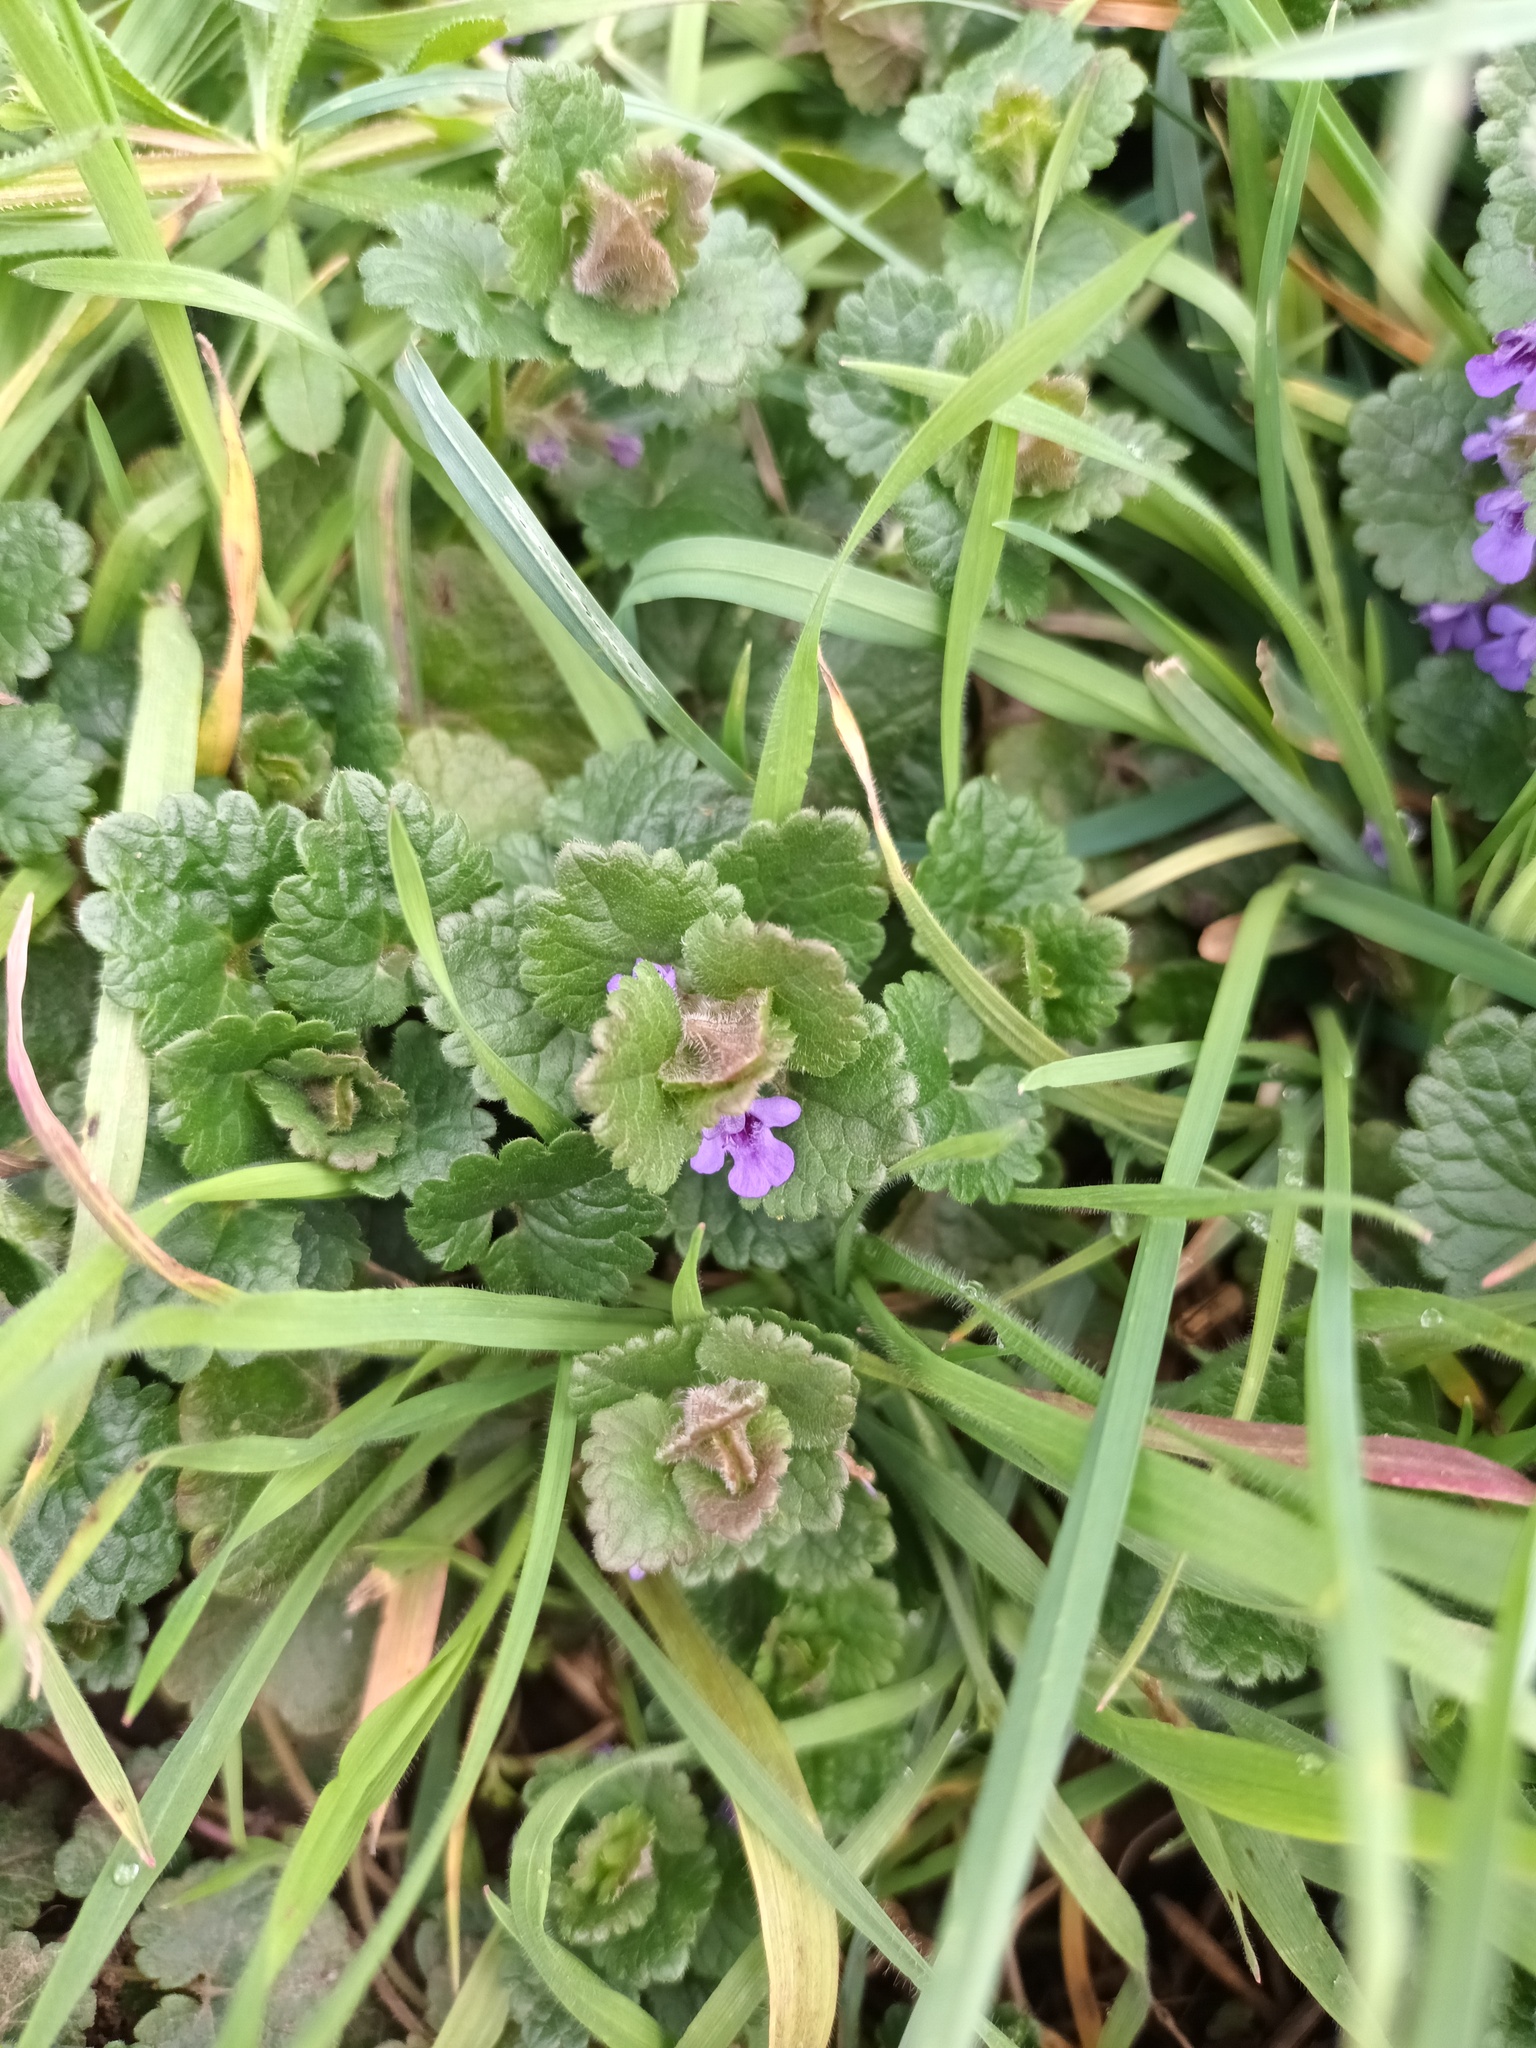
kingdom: Plantae
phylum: Tracheophyta
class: Magnoliopsida
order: Lamiales
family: Lamiaceae
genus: Glechoma
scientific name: Glechoma hederacea
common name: Ground ivy
